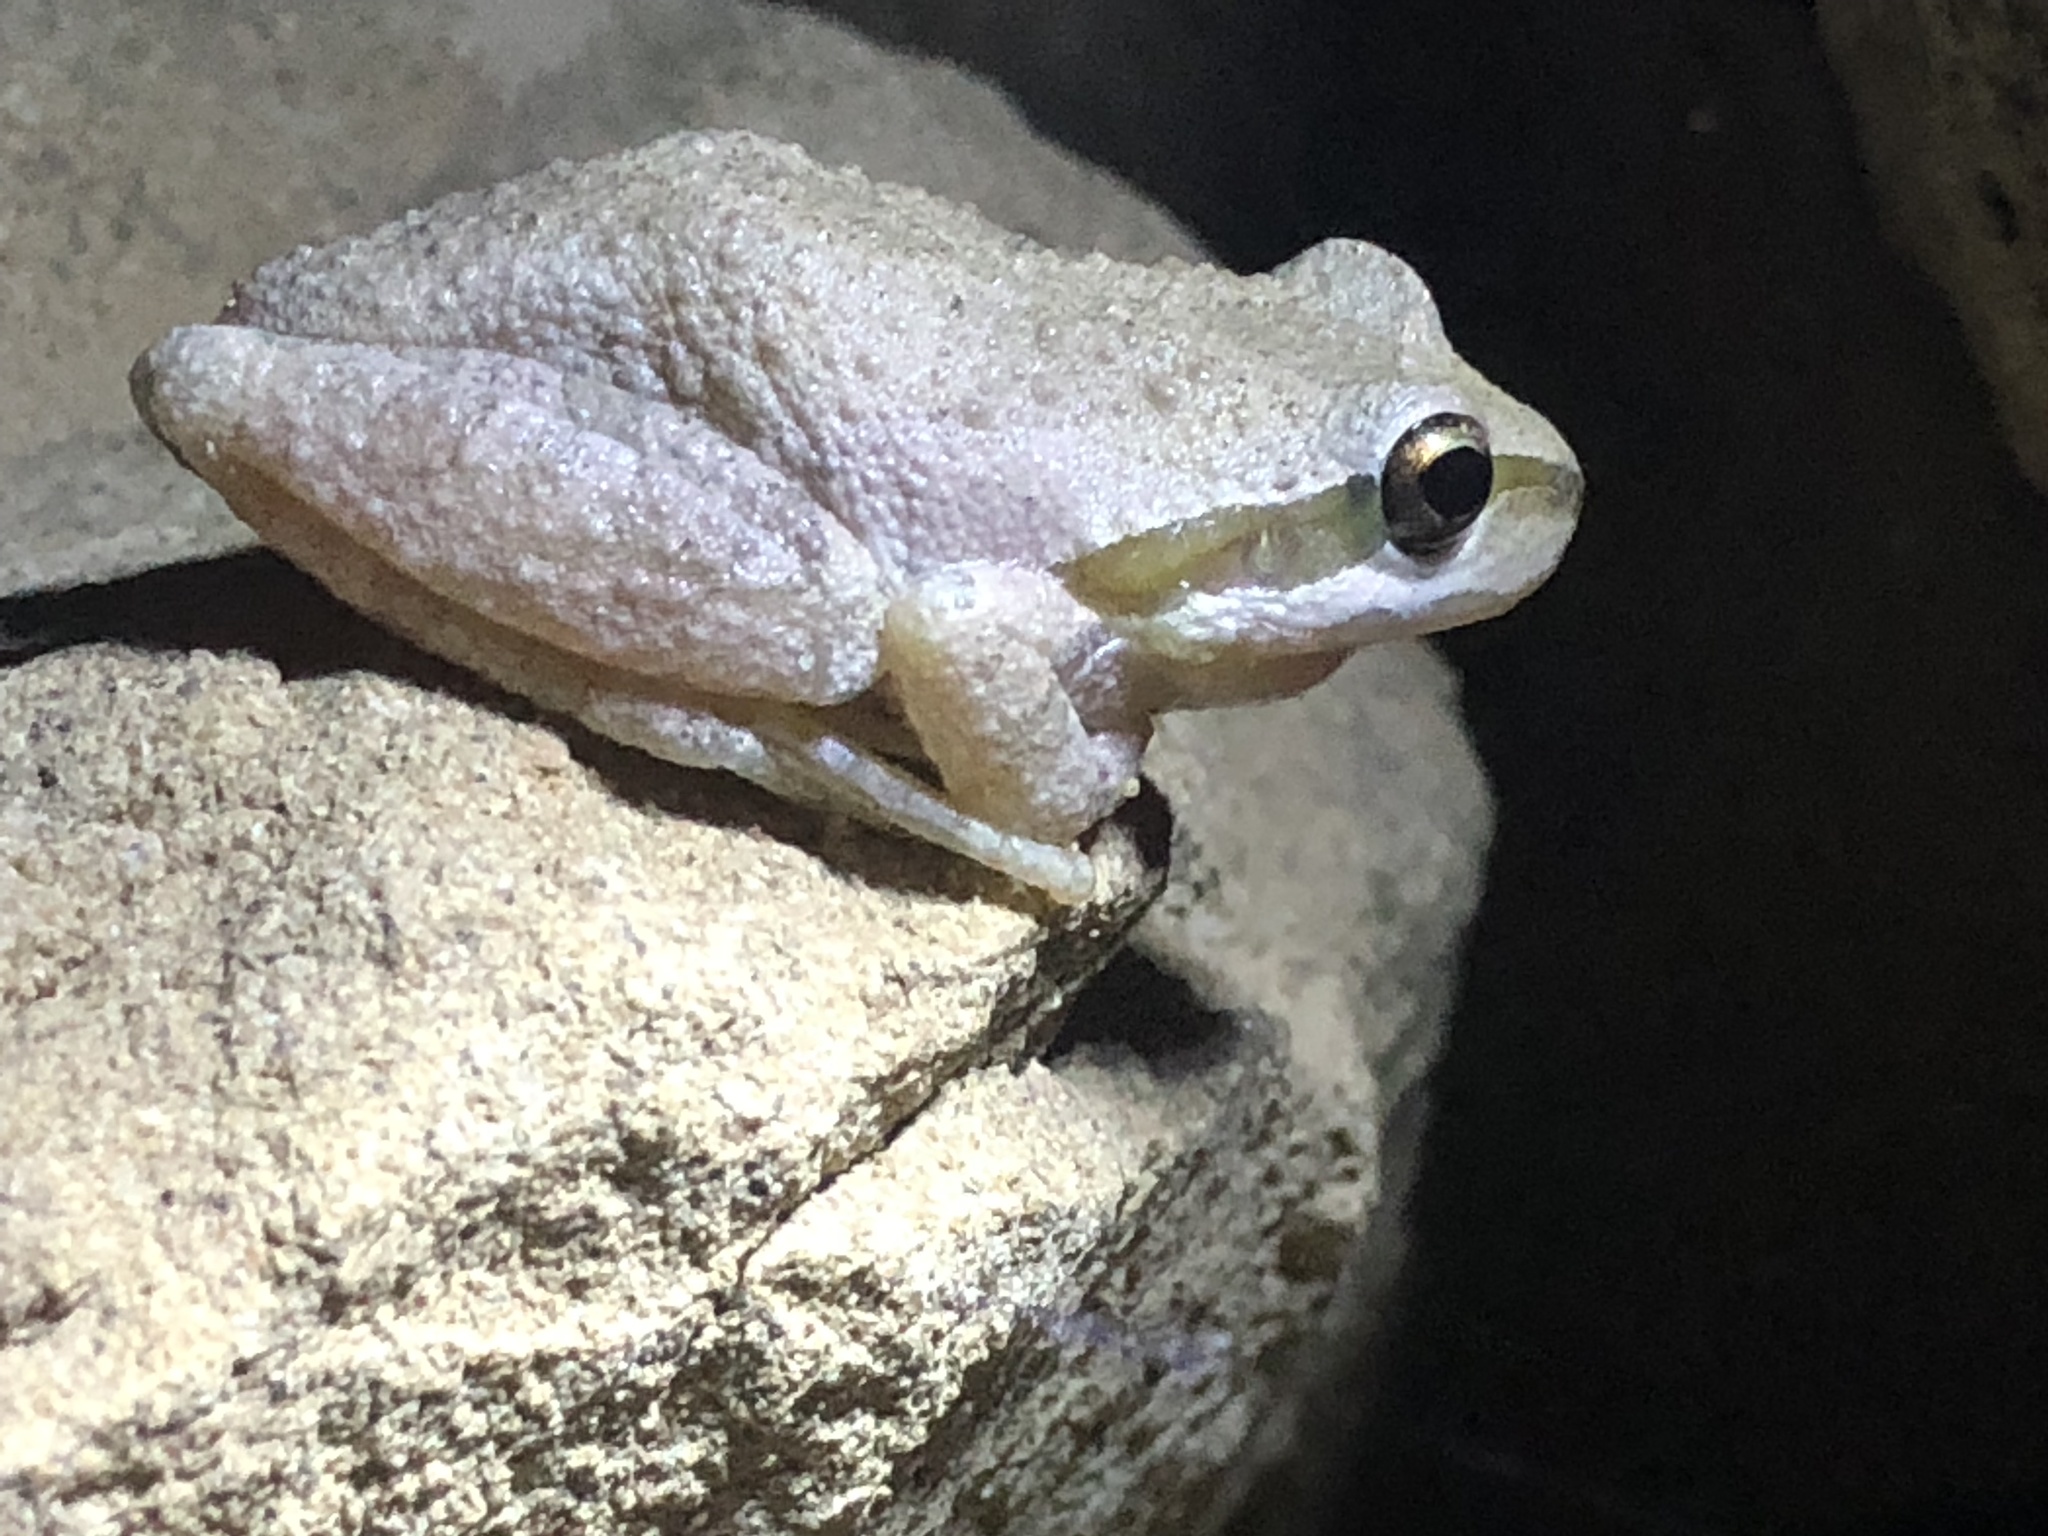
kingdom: Animalia
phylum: Chordata
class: Amphibia
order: Anura
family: Hylidae
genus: Pseudacris
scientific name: Pseudacris regilla
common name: Pacific chorus frog
